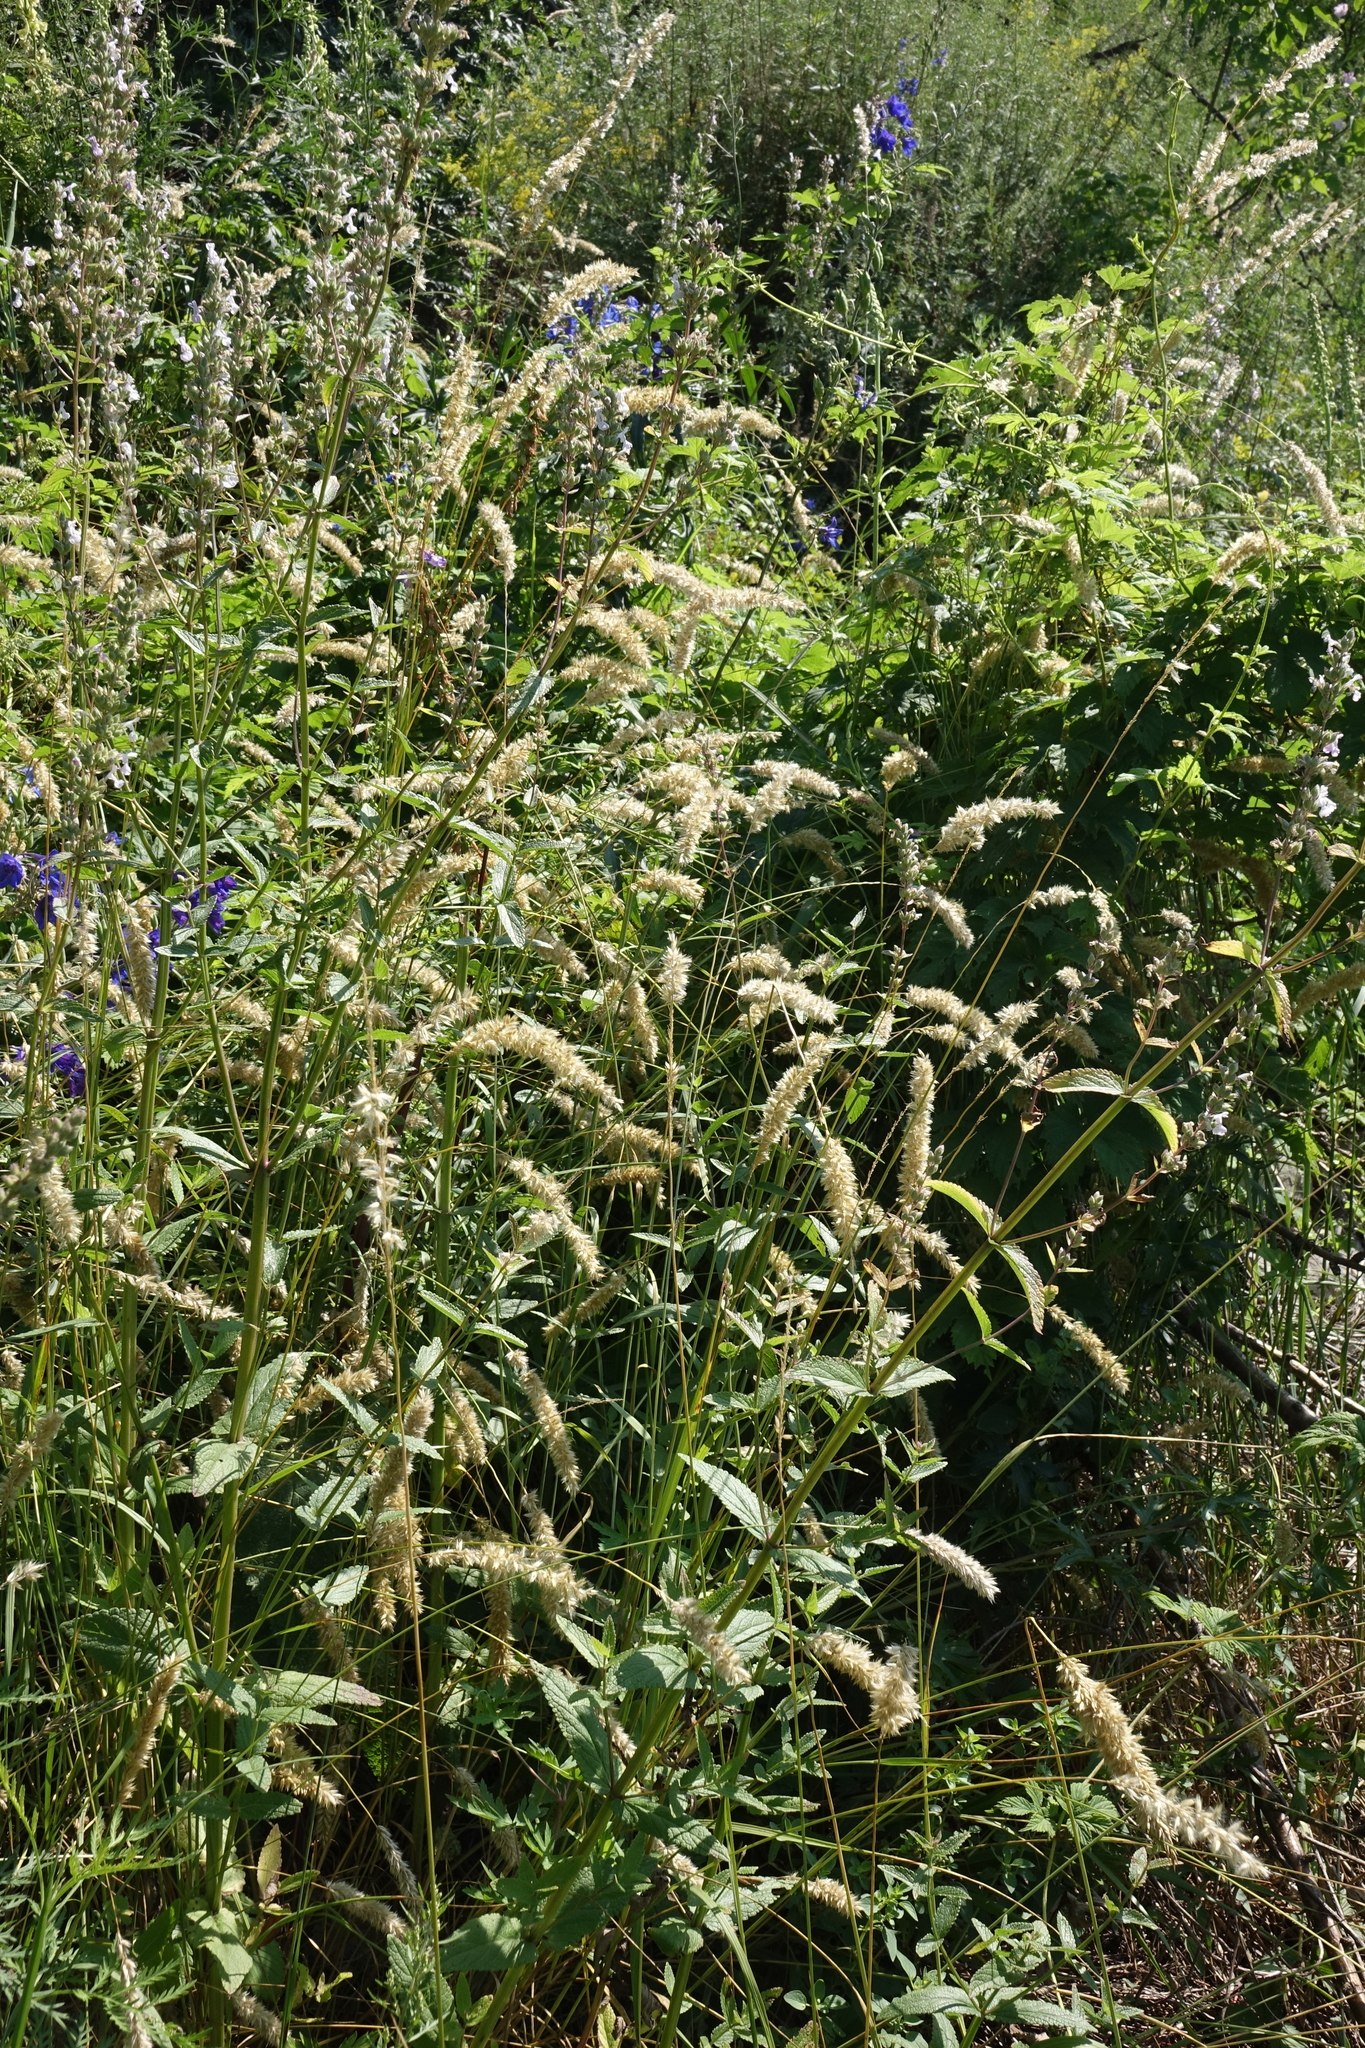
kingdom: Plantae
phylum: Tracheophyta
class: Liliopsida
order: Poales
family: Poaceae
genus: Melica
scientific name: Melica altissima
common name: Siberian melicgrass
